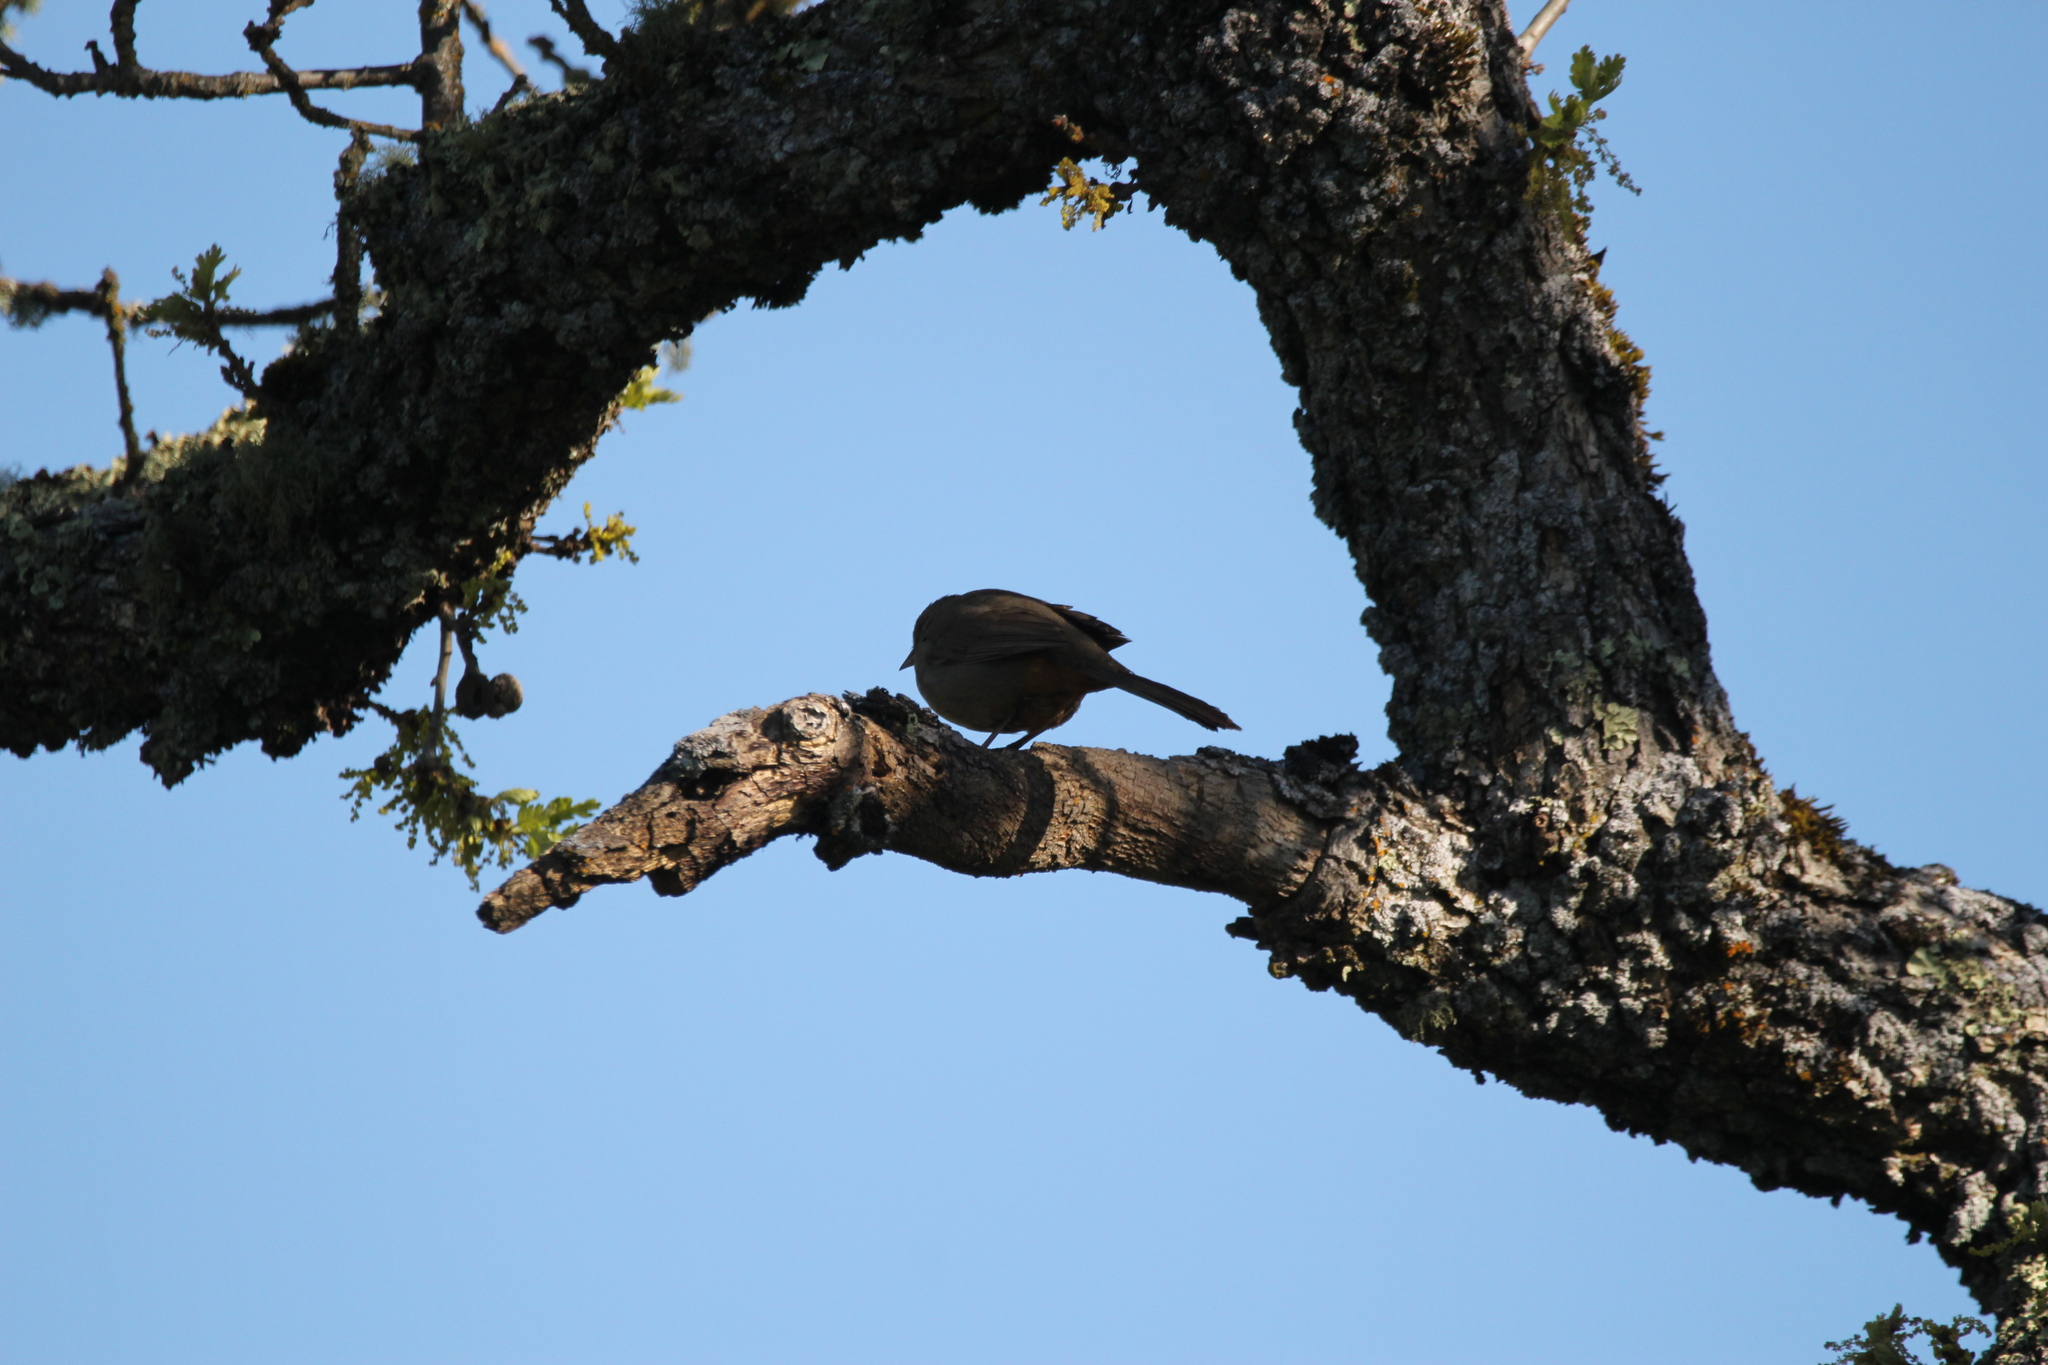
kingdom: Animalia
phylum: Chordata
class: Aves
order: Passeriformes
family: Passerellidae
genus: Melozone
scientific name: Melozone crissalis
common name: California towhee
